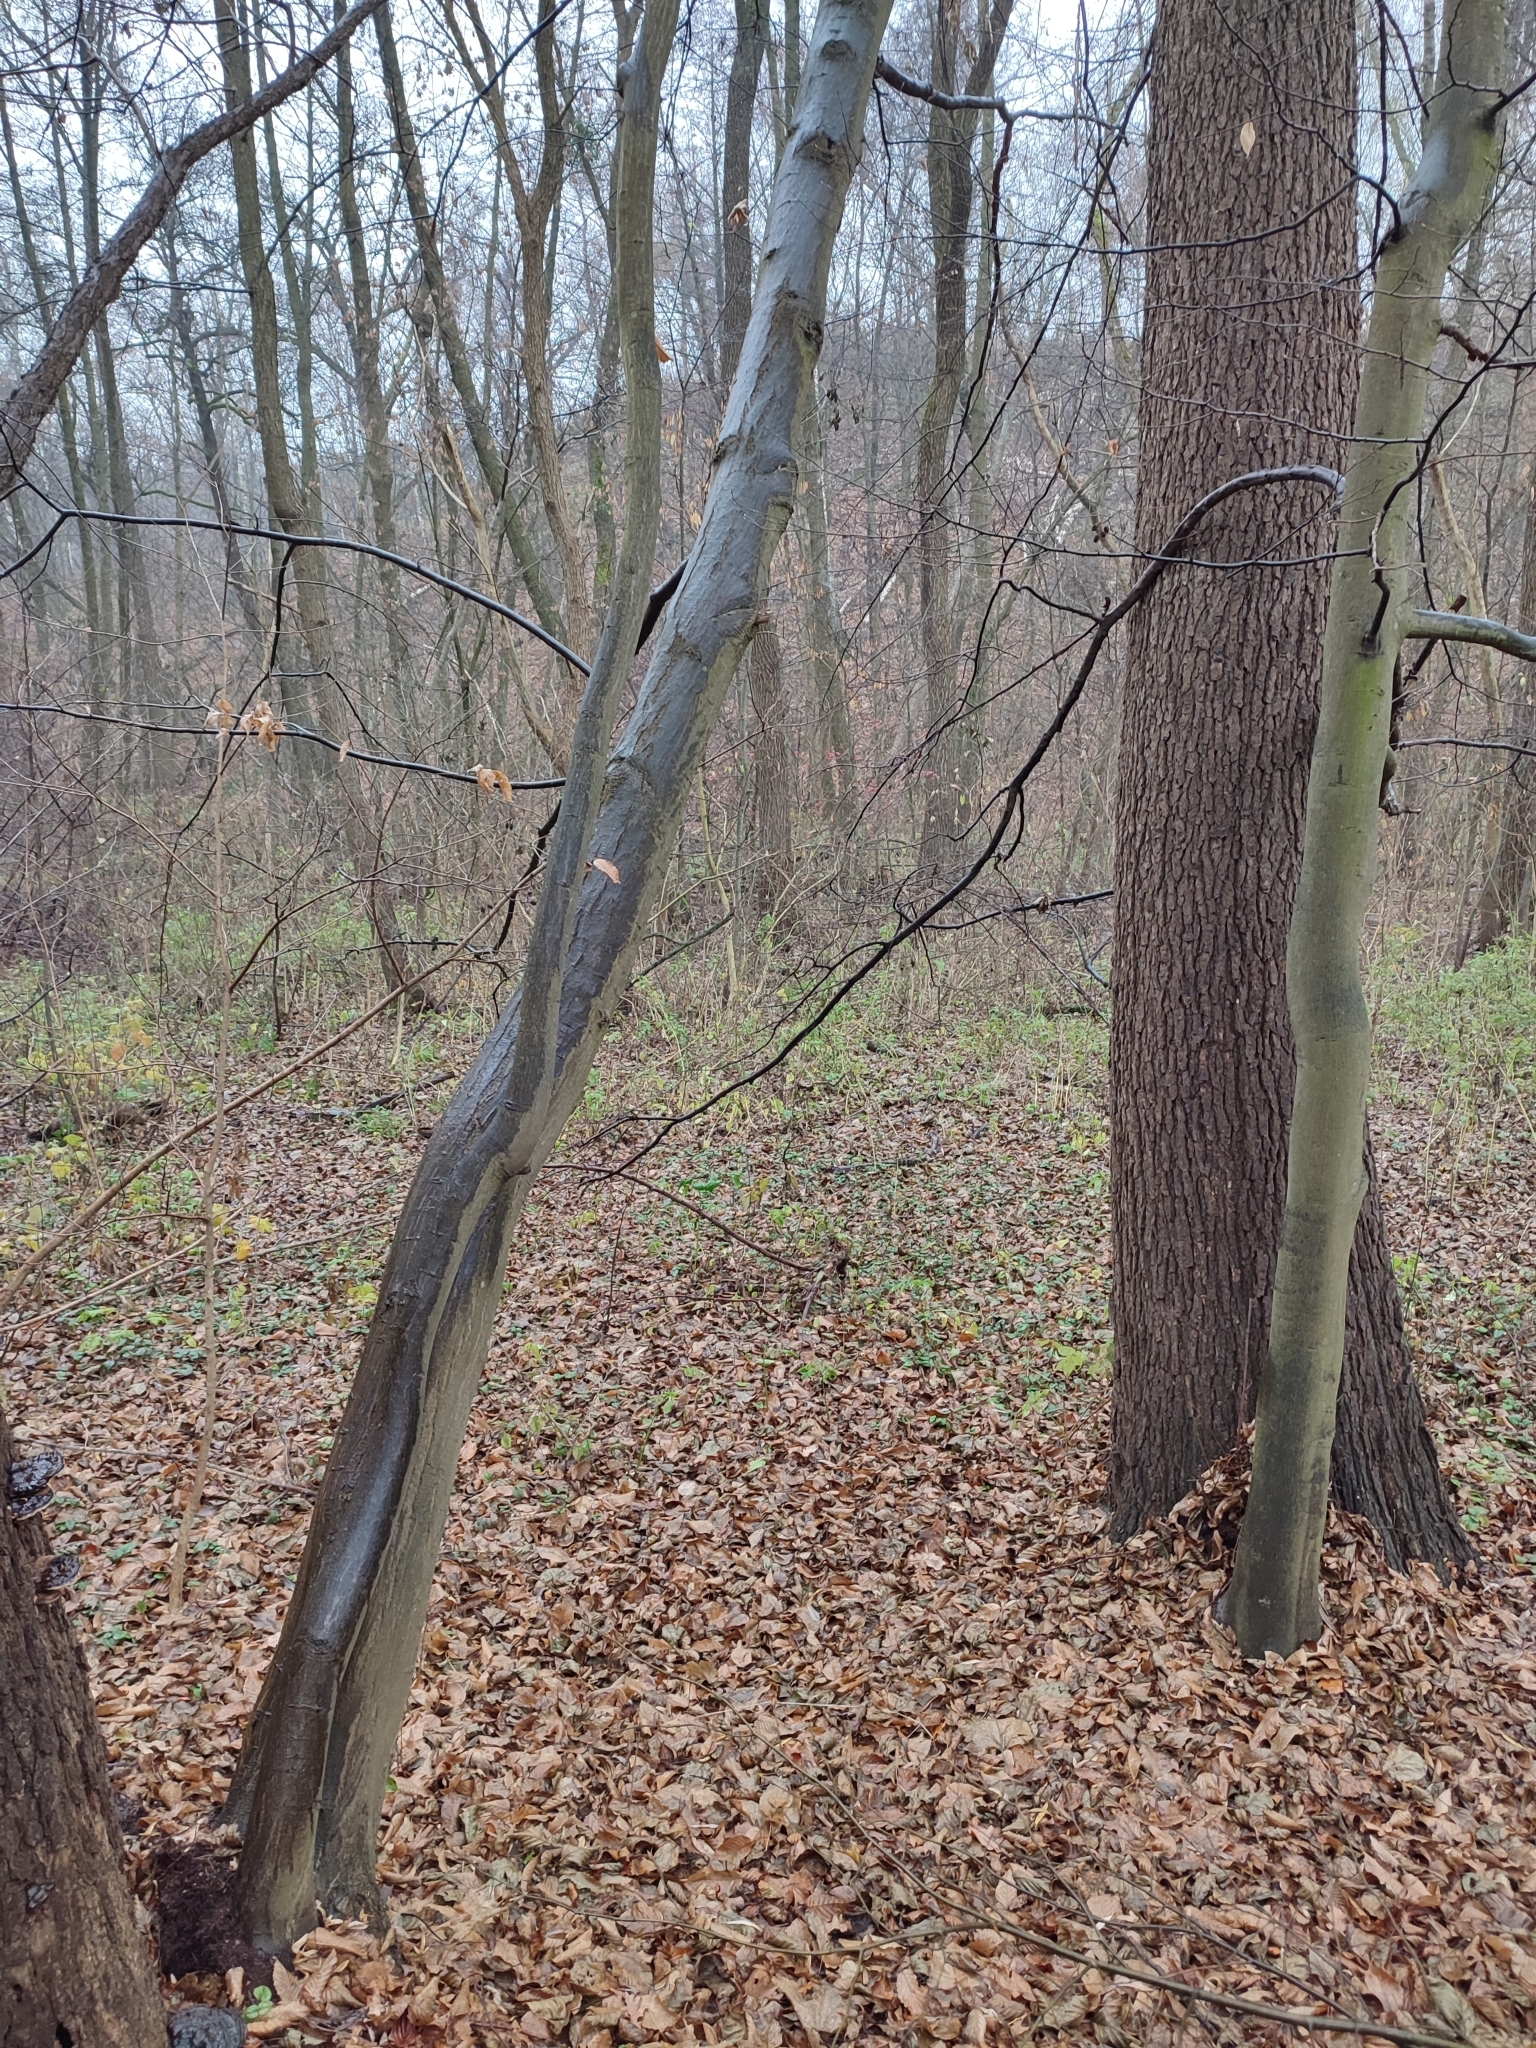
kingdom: Plantae
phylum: Tracheophyta
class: Magnoliopsida
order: Fagales
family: Betulaceae
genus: Carpinus
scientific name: Carpinus betulus
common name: Hornbeam
